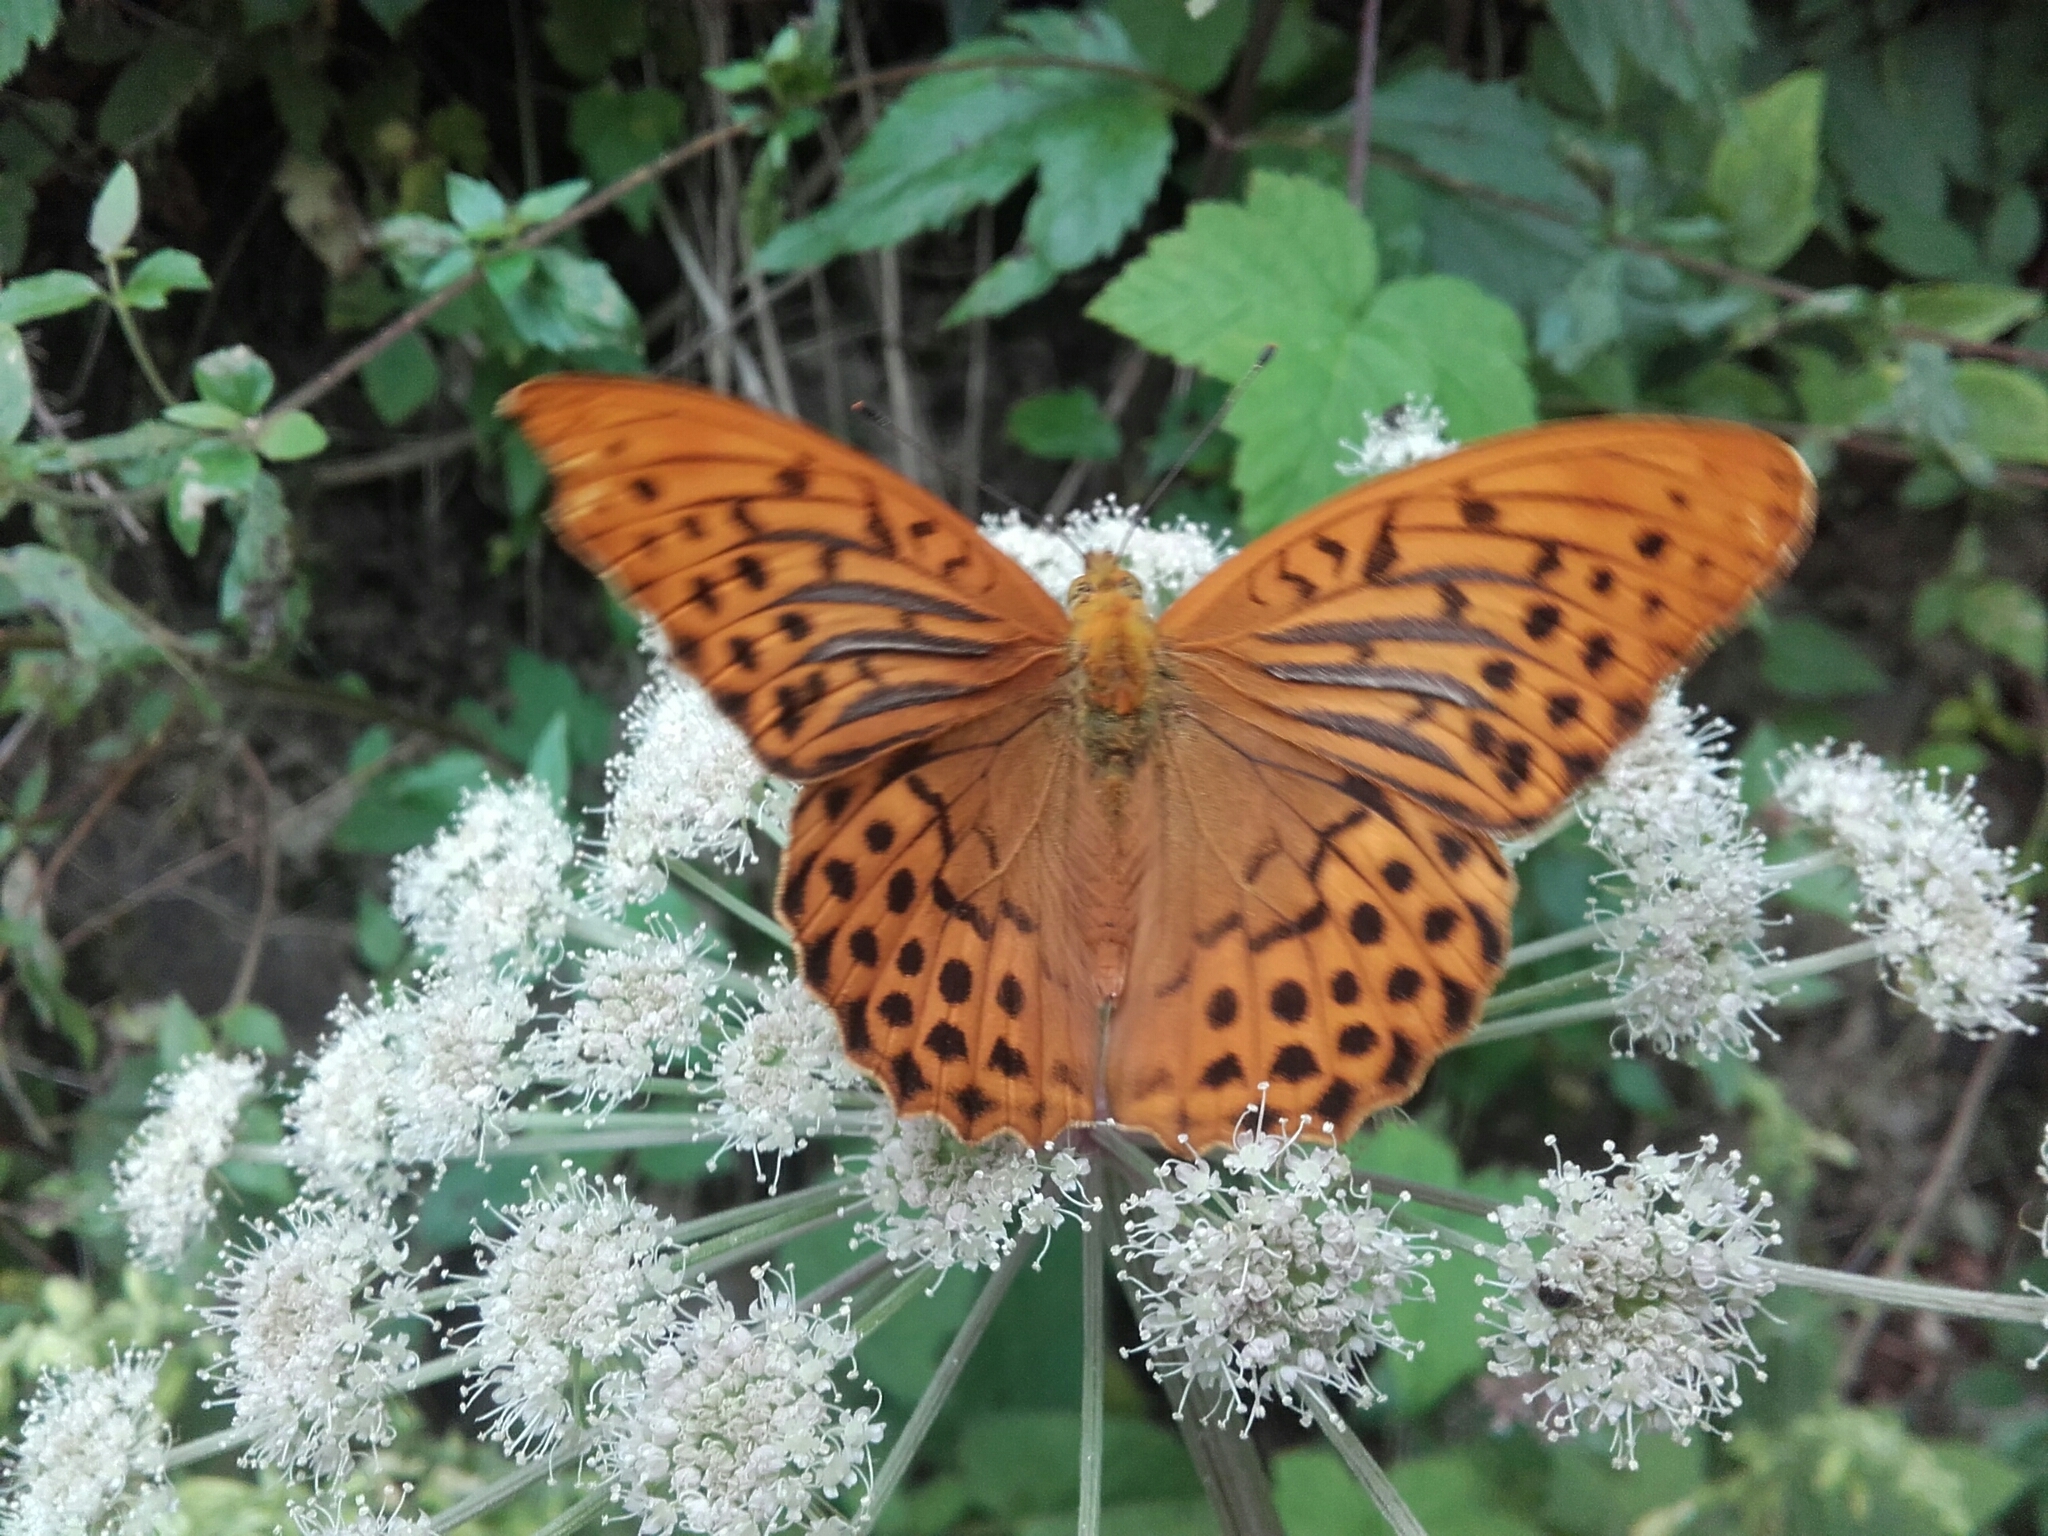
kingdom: Animalia
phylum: Arthropoda
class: Insecta
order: Lepidoptera
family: Nymphalidae
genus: Argynnis
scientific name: Argynnis paphia
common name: Silver-washed fritillary
